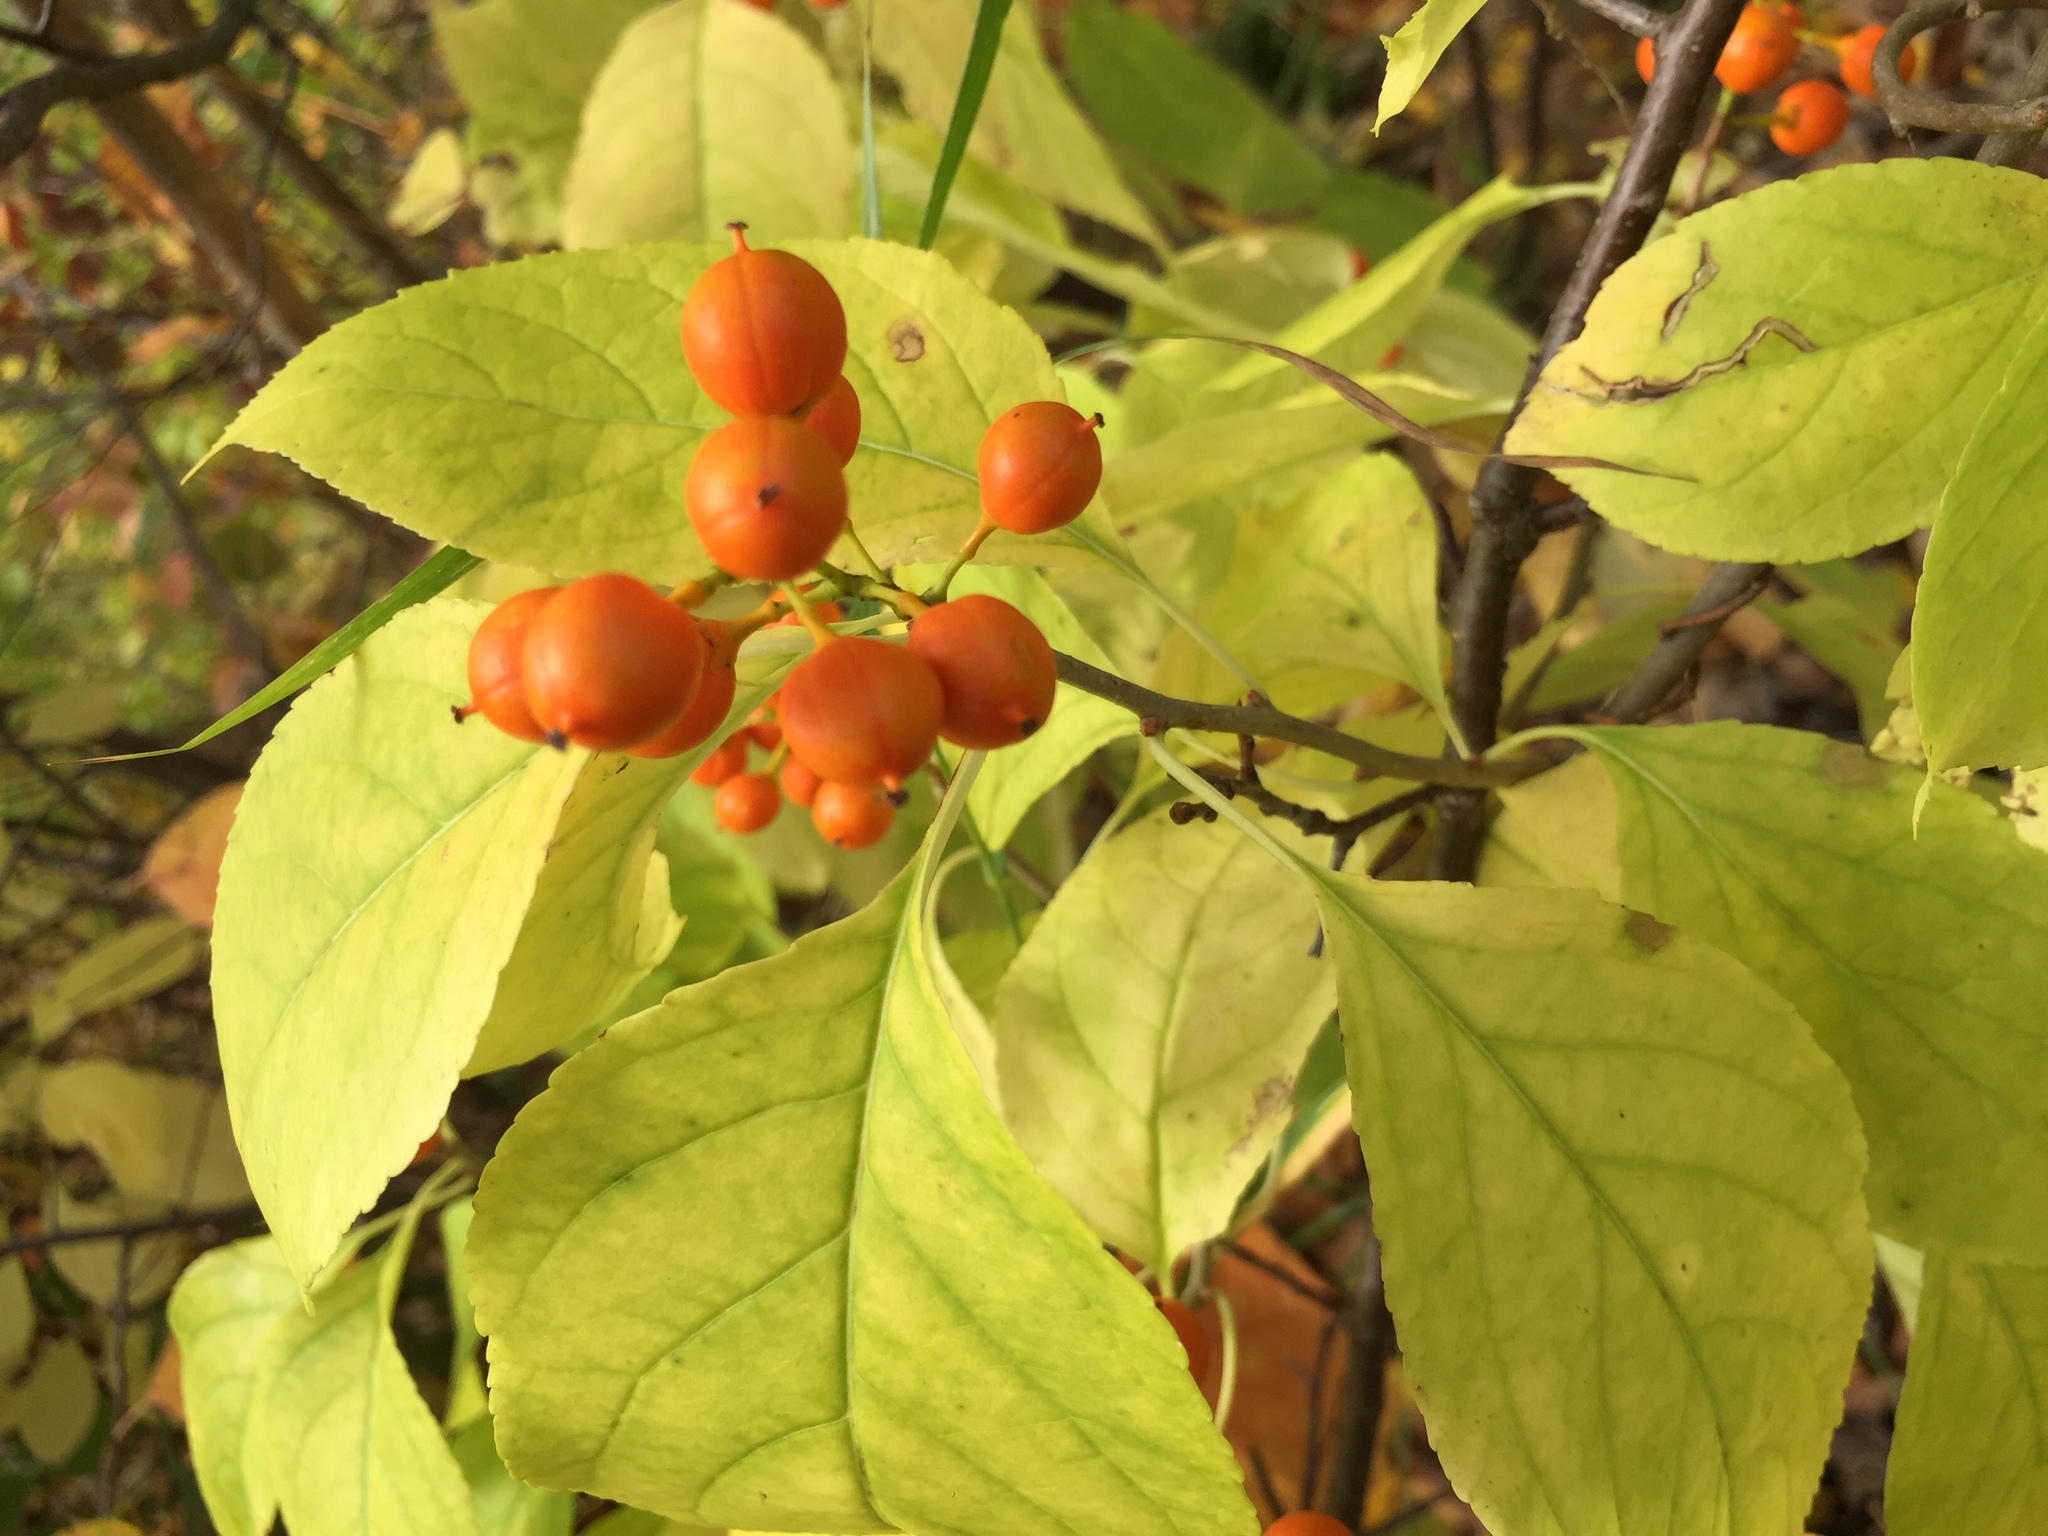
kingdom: Plantae
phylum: Tracheophyta
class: Magnoliopsida
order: Celastrales
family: Celastraceae
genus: Celastrus
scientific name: Celastrus scandens
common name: American bittersweet
